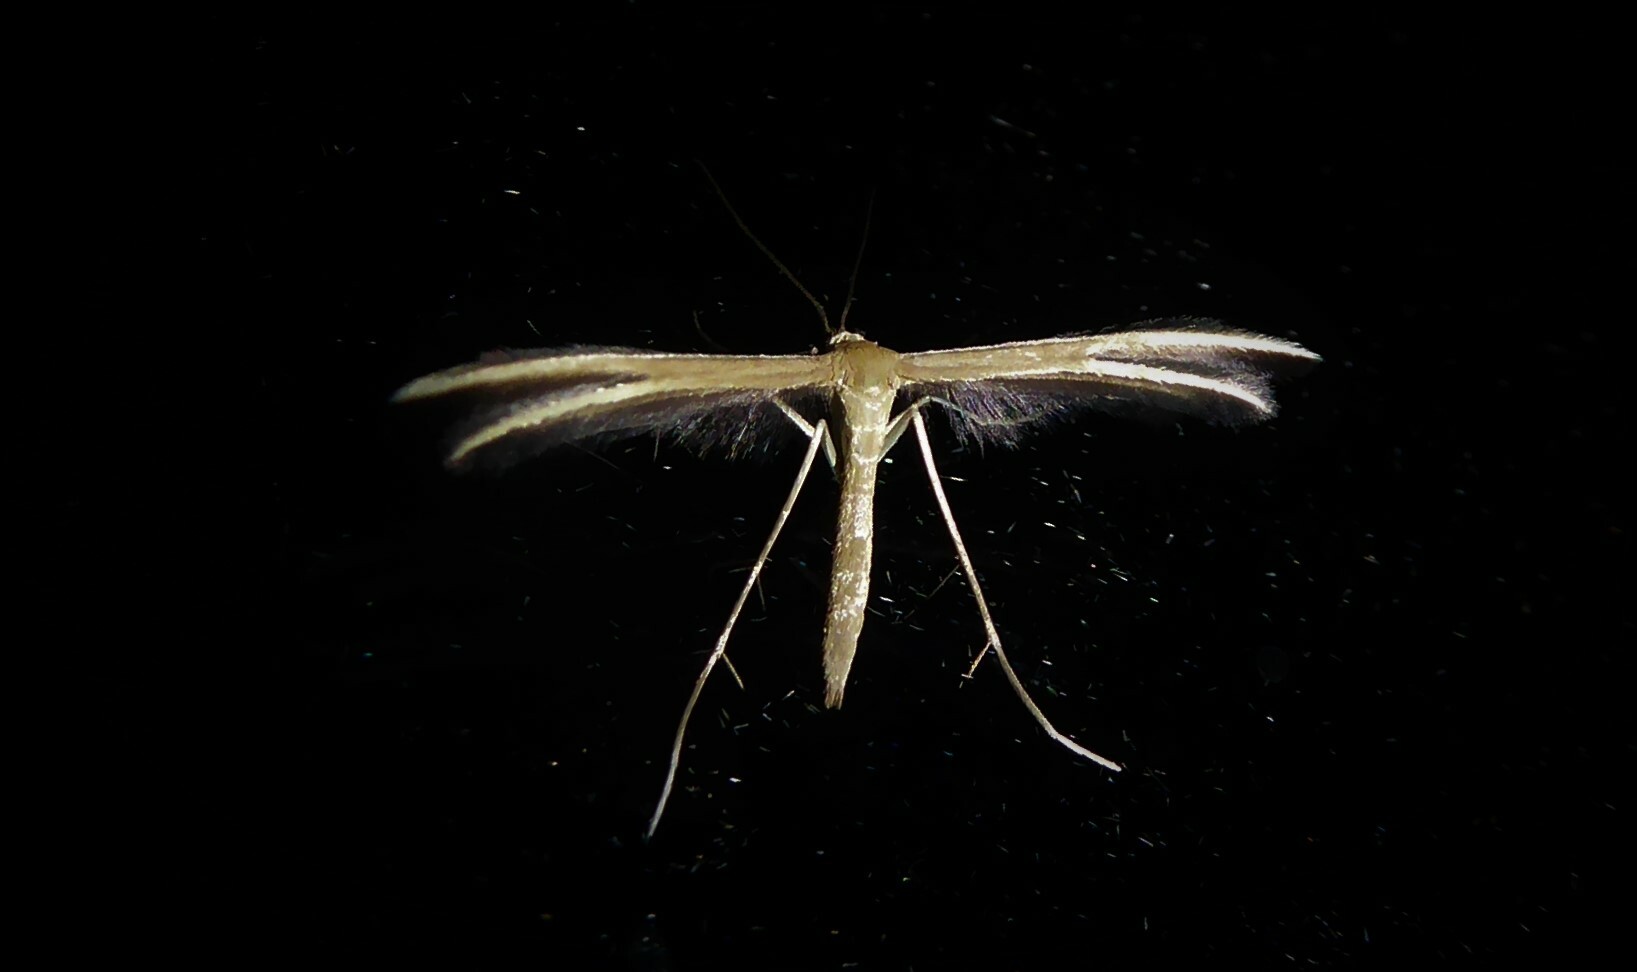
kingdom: Animalia
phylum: Arthropoda
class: Insecta
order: Lepidoptera
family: Pterophoridae
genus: Pterophorus
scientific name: Pterophorus innotatalis
